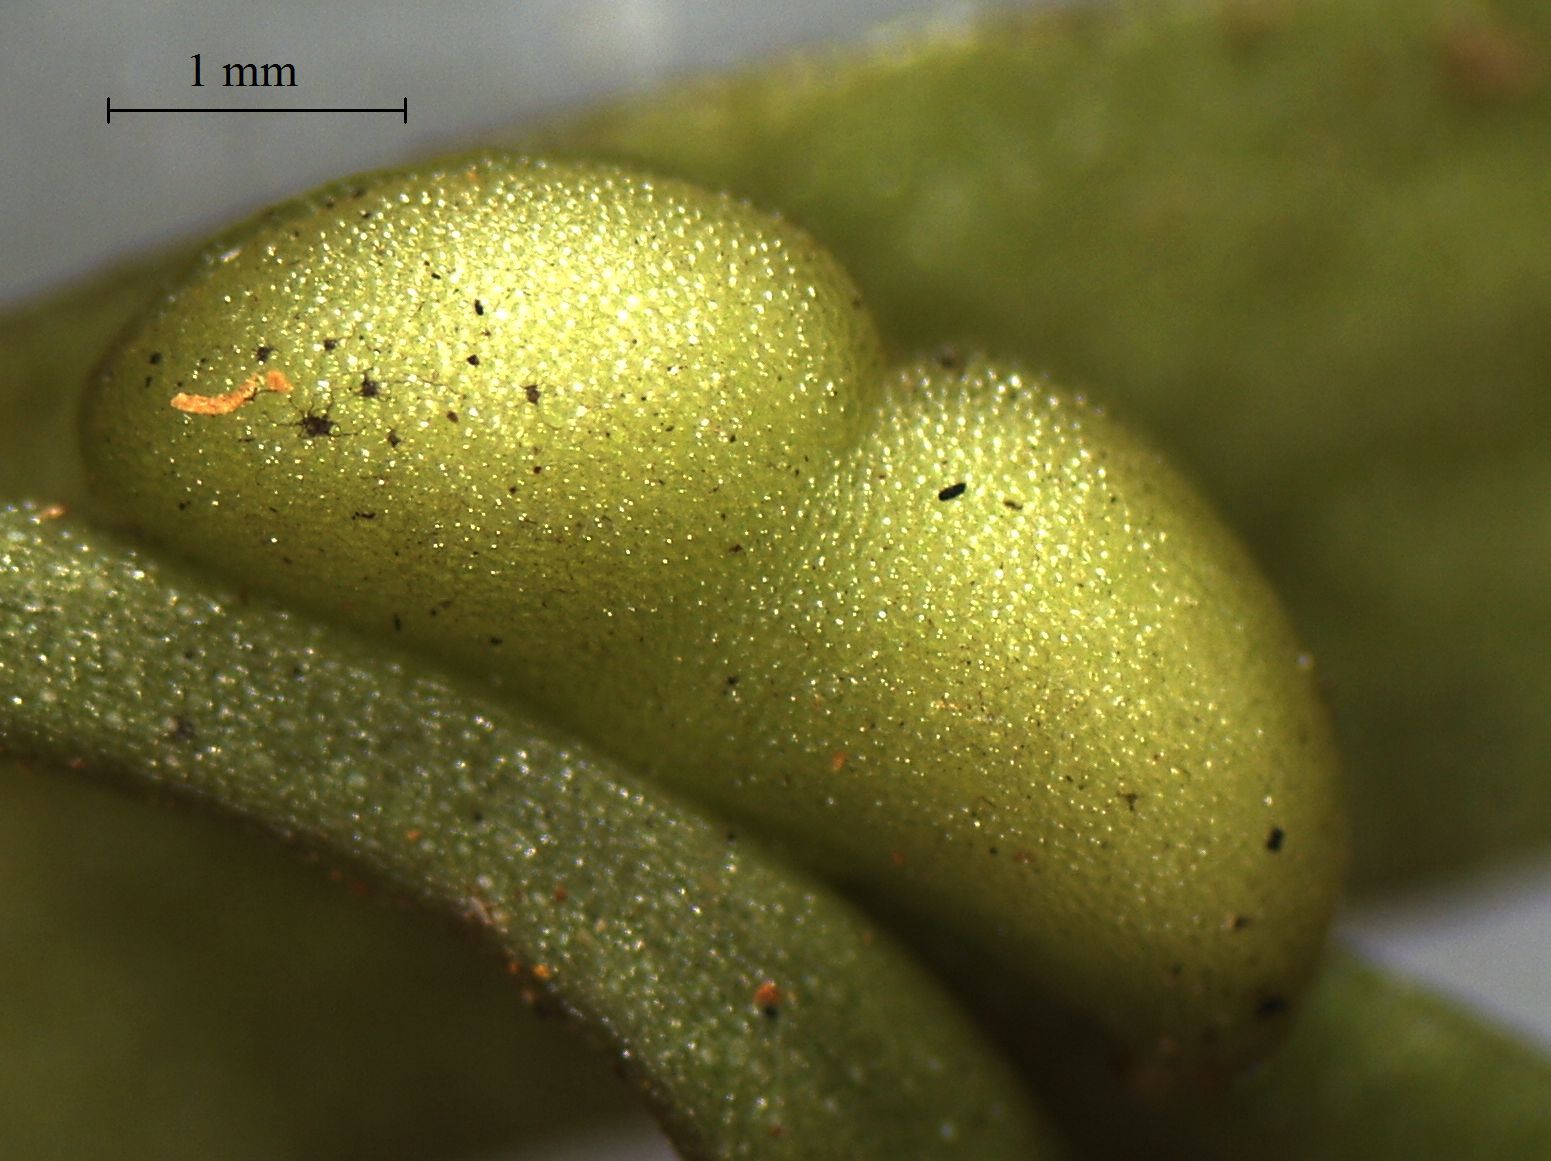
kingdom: Plantae
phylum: Tracheophyta
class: Polypodiopsida
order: Psilotales
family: Psilotaceae
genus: Tmesipteris
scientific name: Tmesipteris elongata
